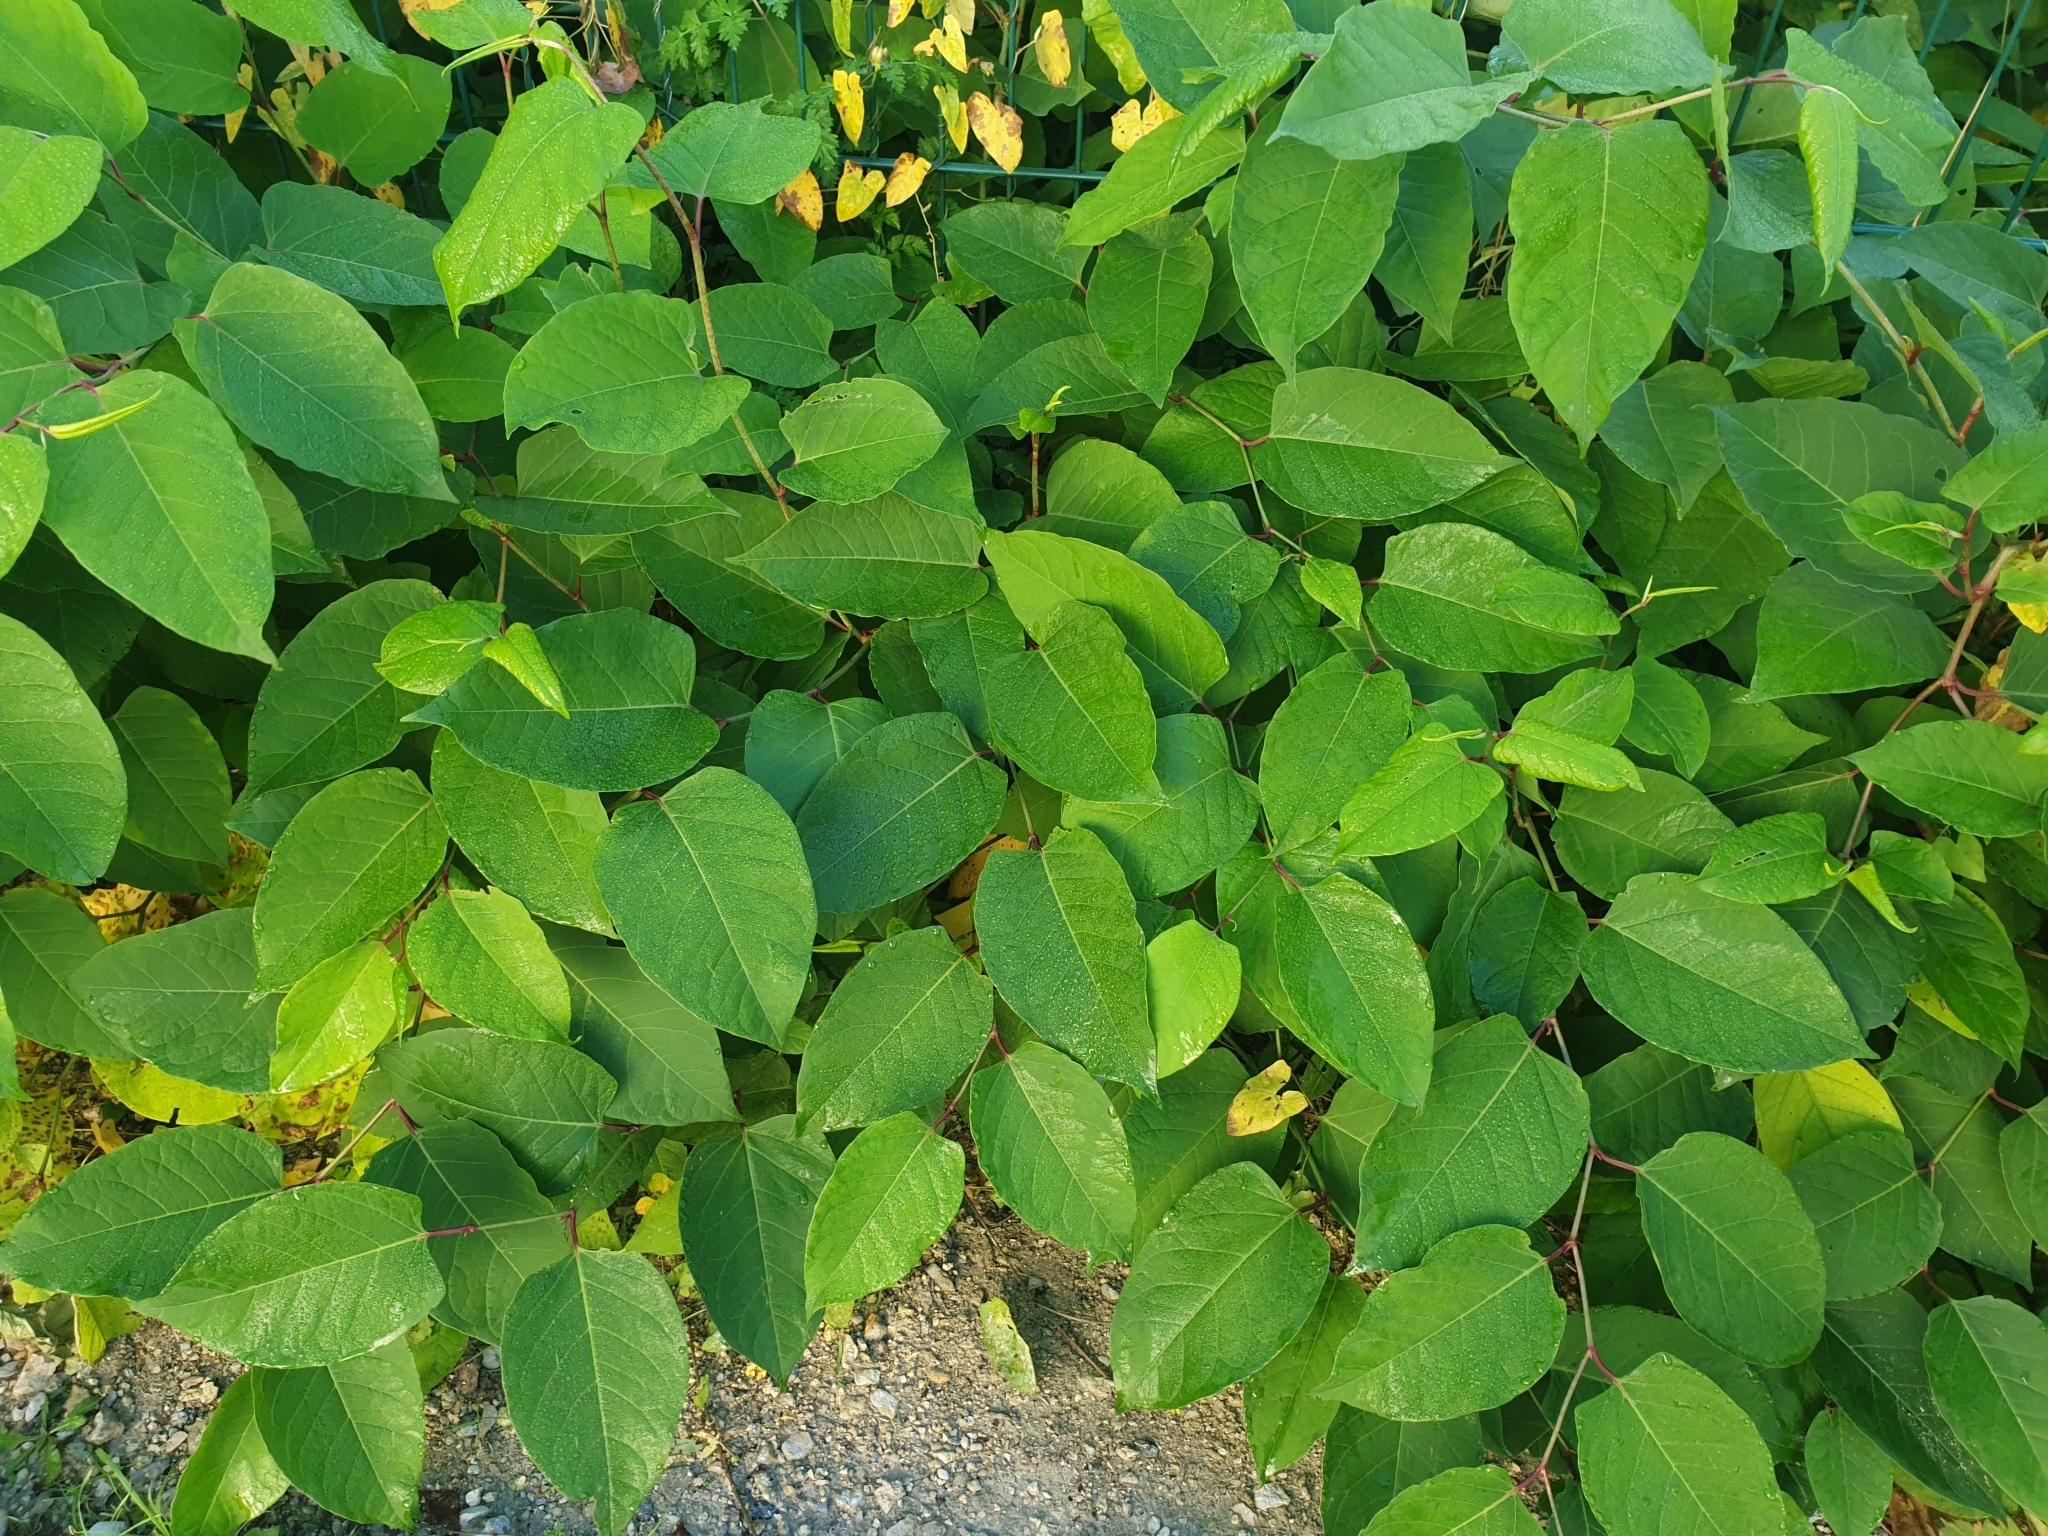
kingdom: Plantae
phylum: Tracheophyta
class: Magnoliopsida
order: Caryophyllales
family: Polygonaceae
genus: Reynoutria
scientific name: Reynoutria japonica
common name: Japanese knotweed
